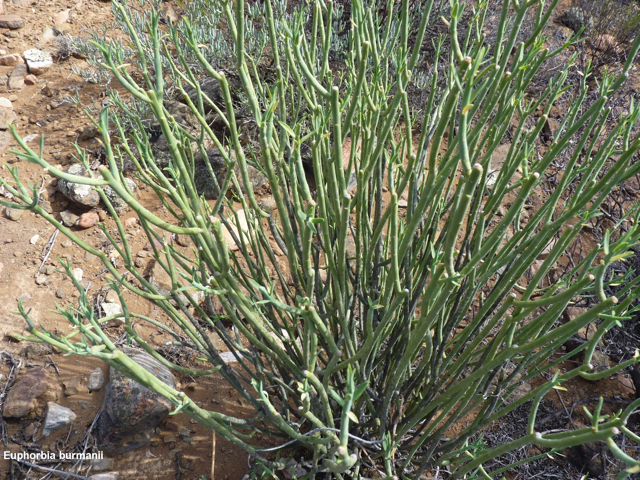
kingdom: Plantae
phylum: Tracheophyta
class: Magnoliopsida
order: Malpighiales
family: Euphorbiaceae
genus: Euphorbia
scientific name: Euphorbia mauritanica
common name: Jackal's-food
